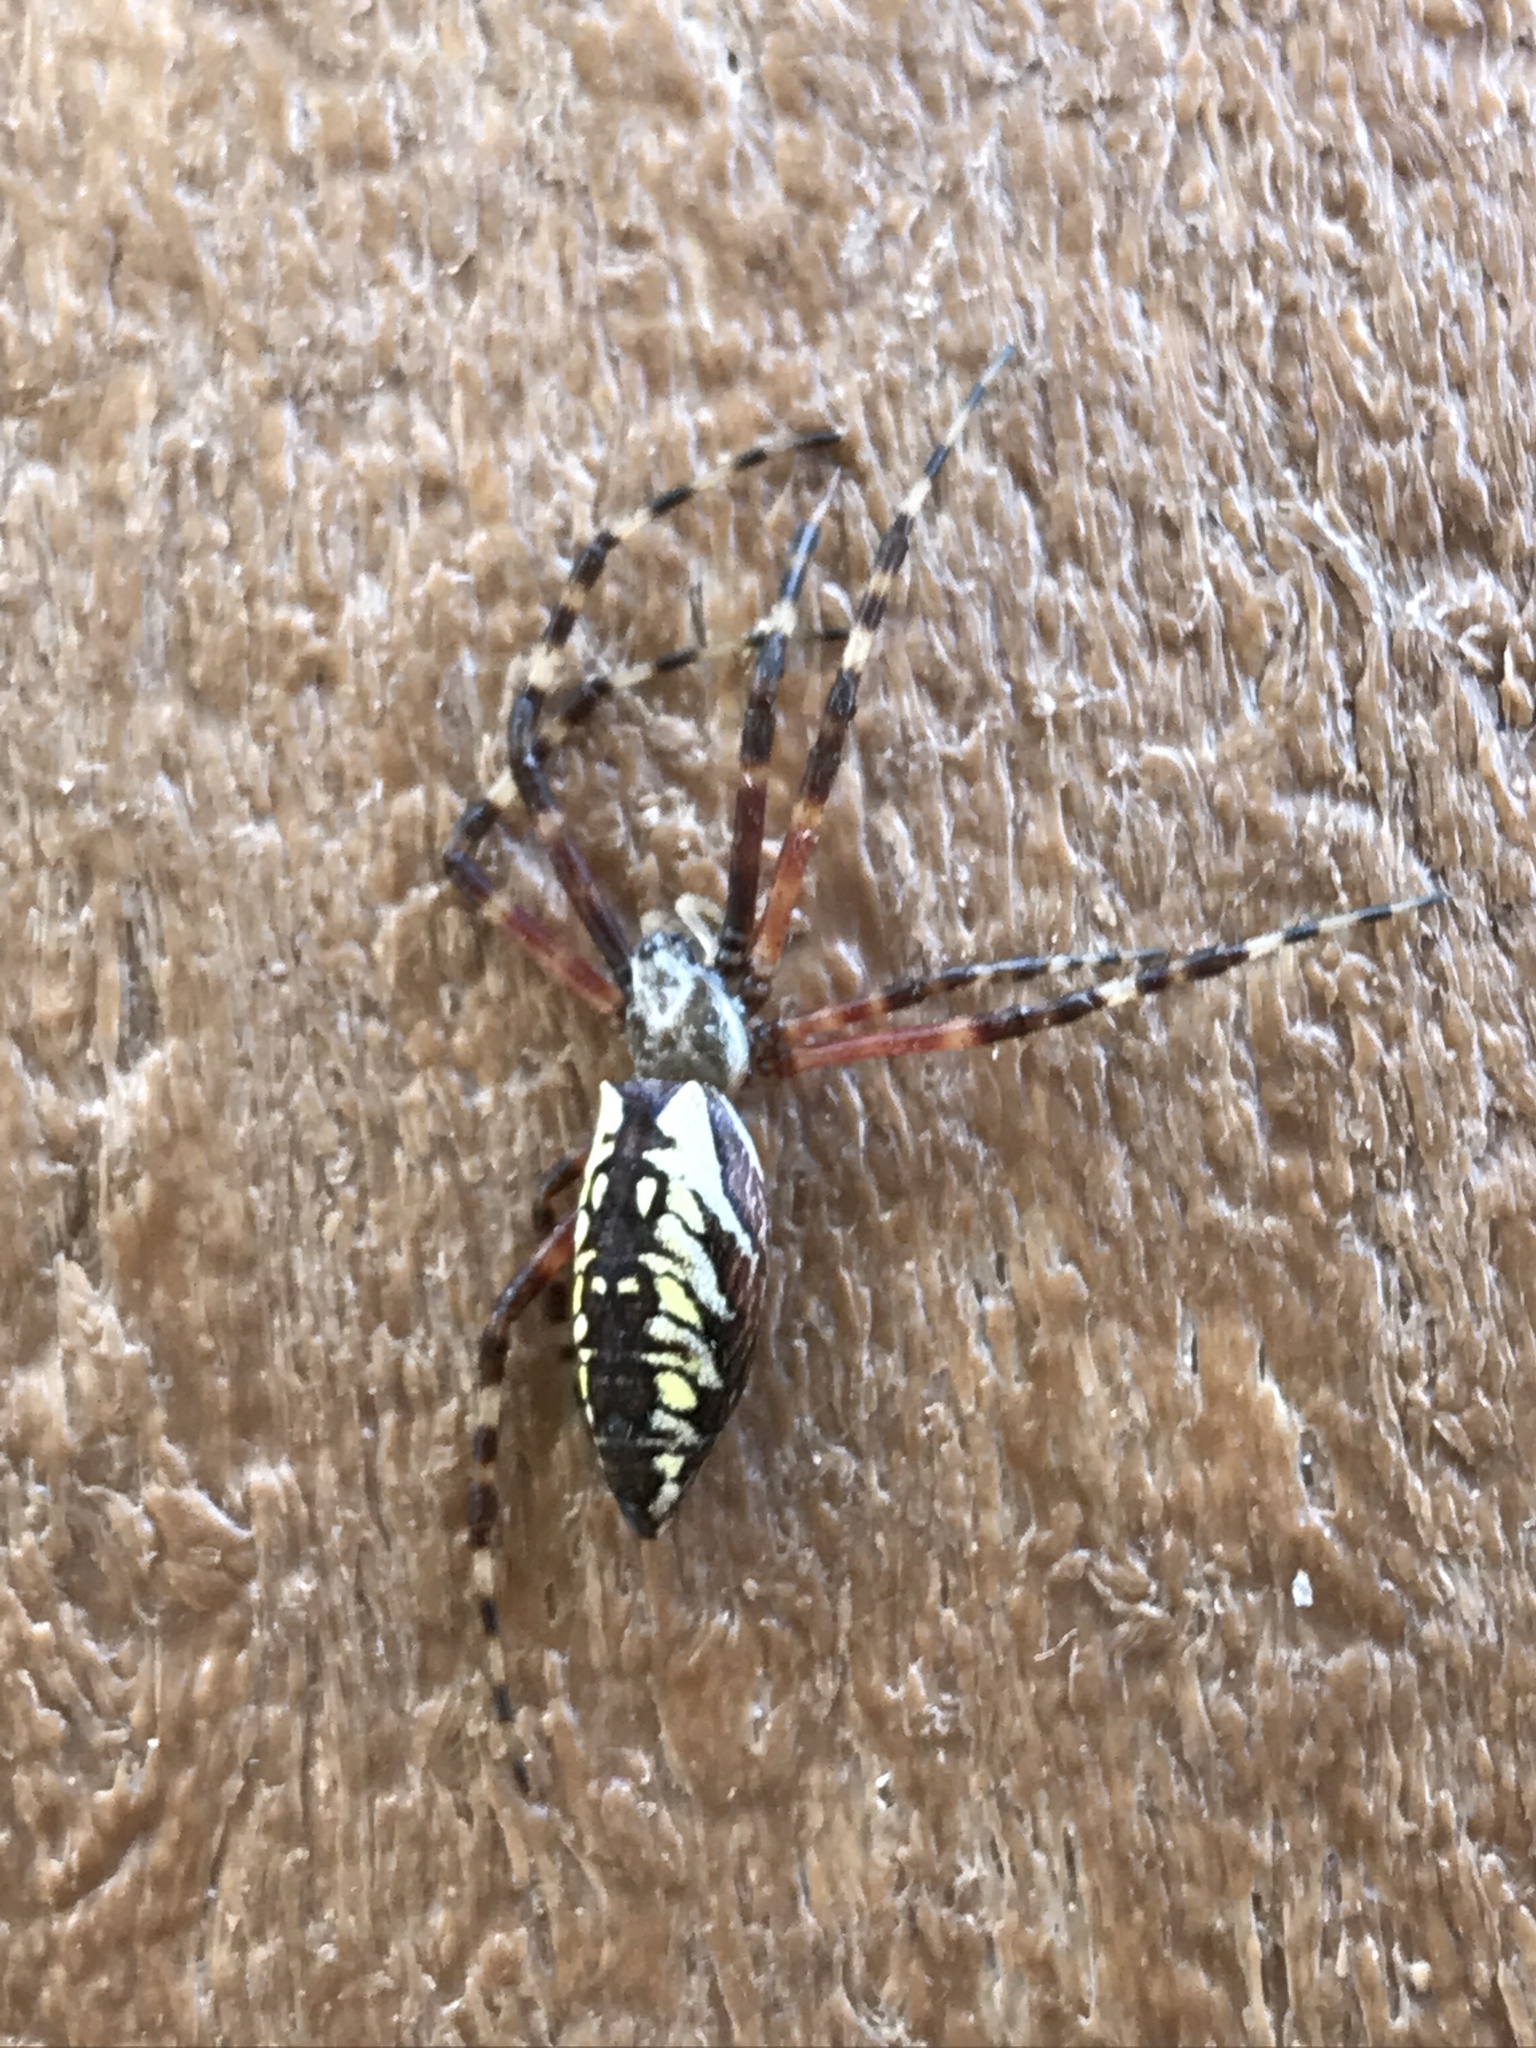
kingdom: Animalia
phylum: Arthropoda
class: Arachnida
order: Araneae
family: Araneidae
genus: Argiope
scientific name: Argiope aurantia
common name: Orb weavers
